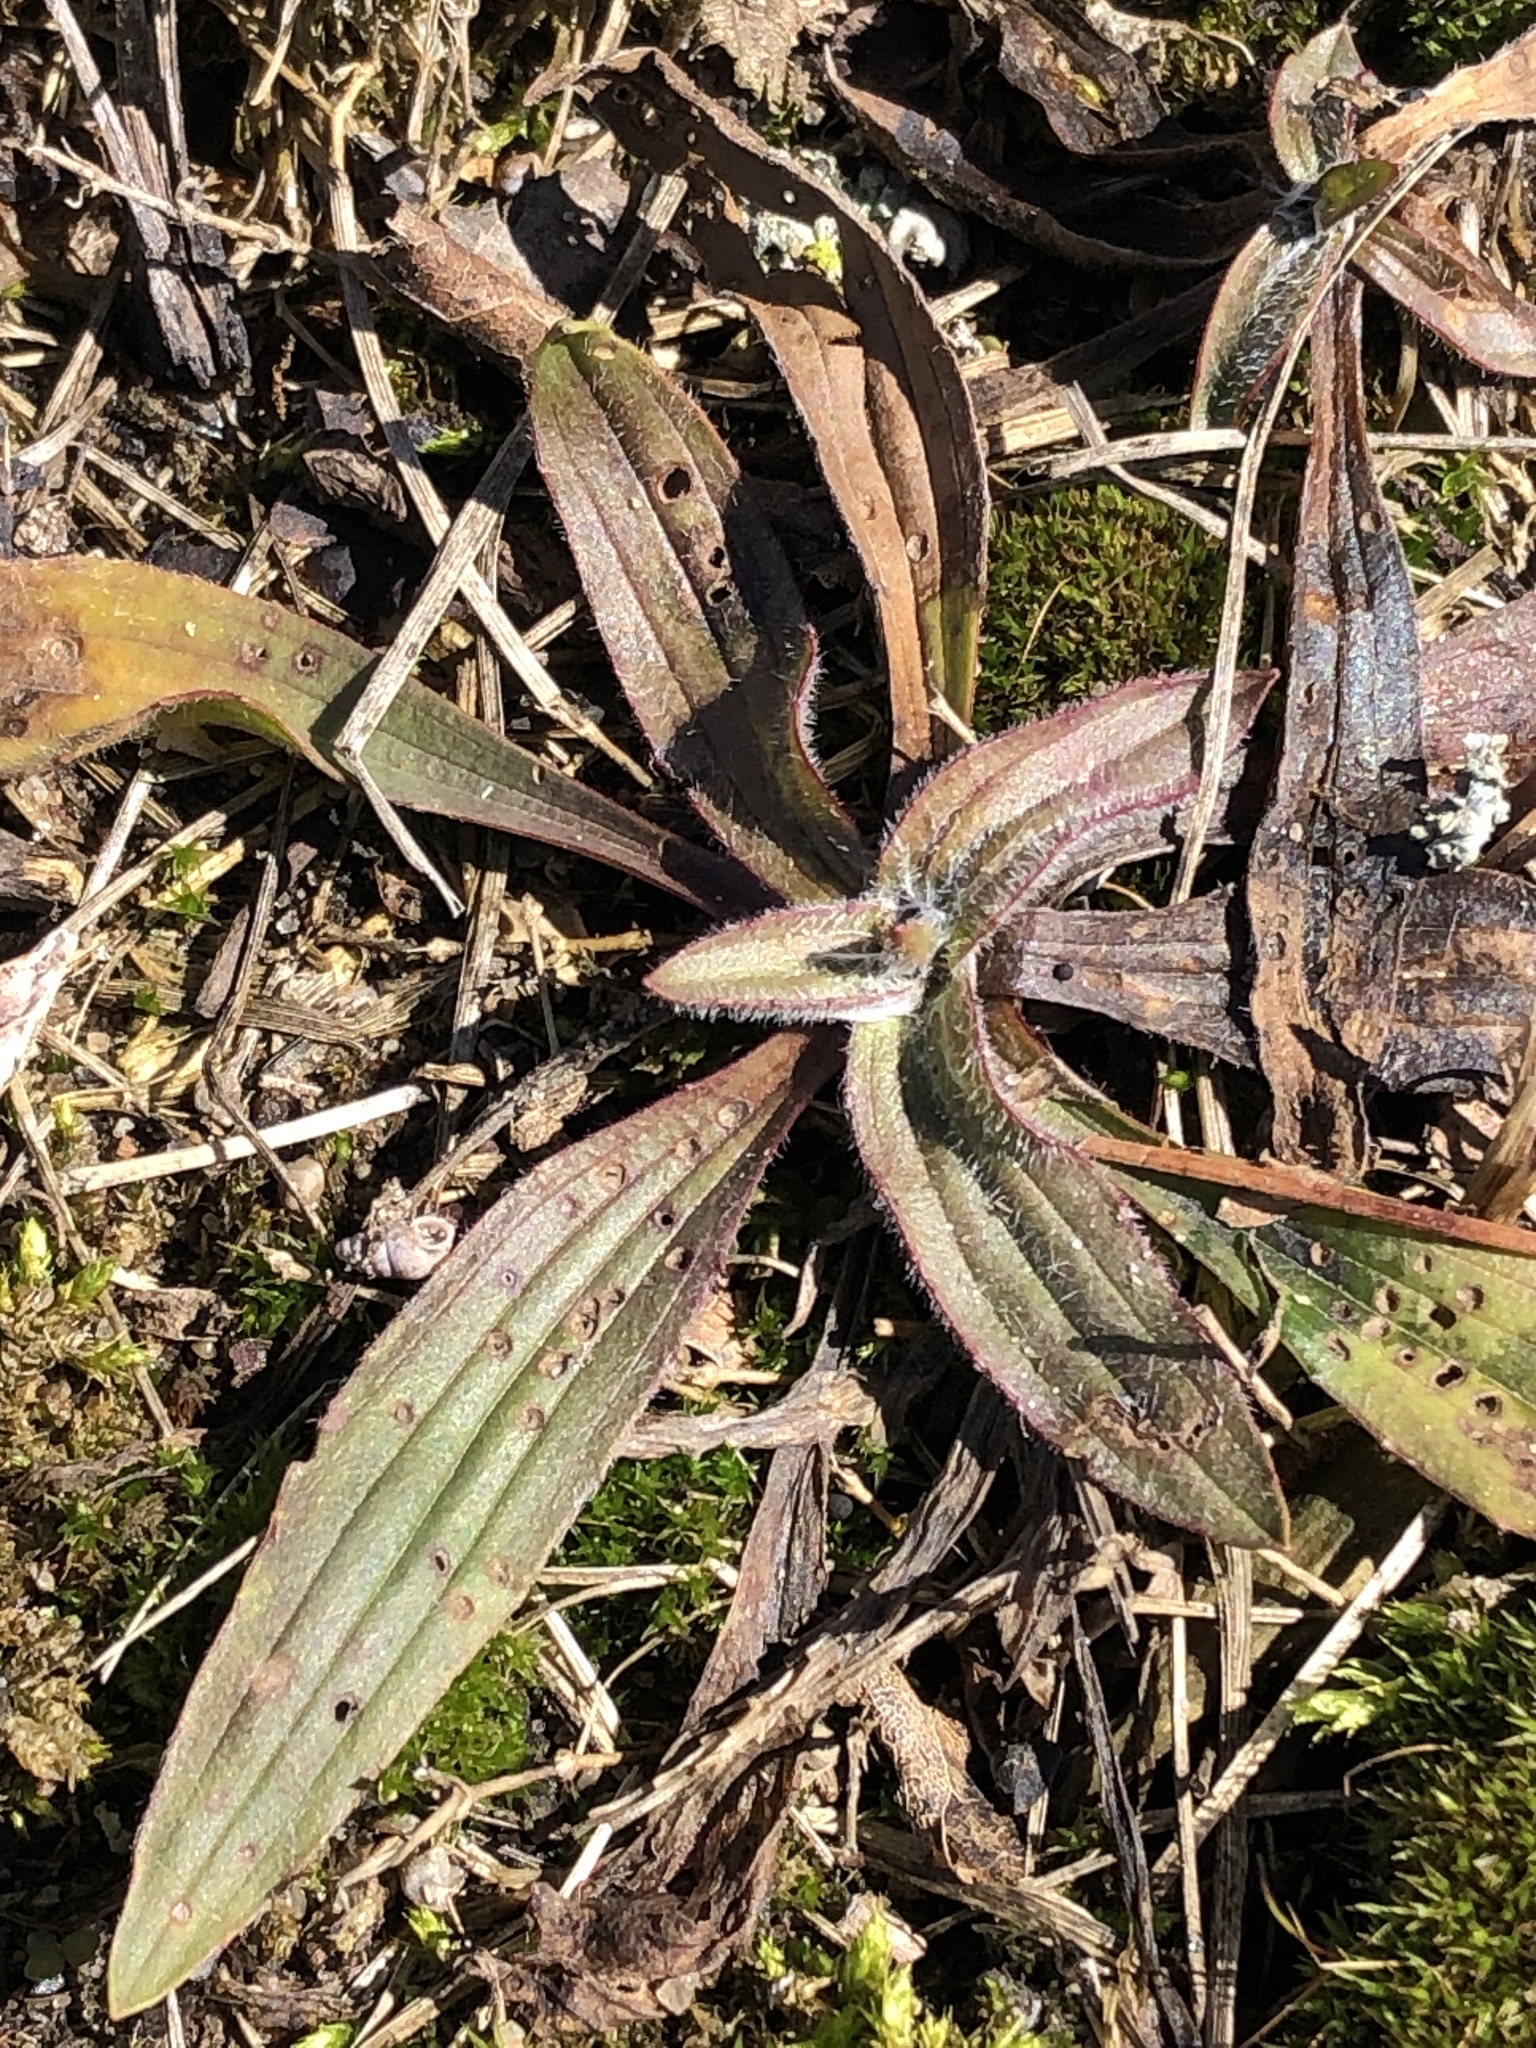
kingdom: Plantae
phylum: Tracheophyta
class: Magnoliopsida
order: Lamiales
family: Plantaginaceae
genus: Plantago
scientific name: Plantago lanceolata
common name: Ribwort plantain
